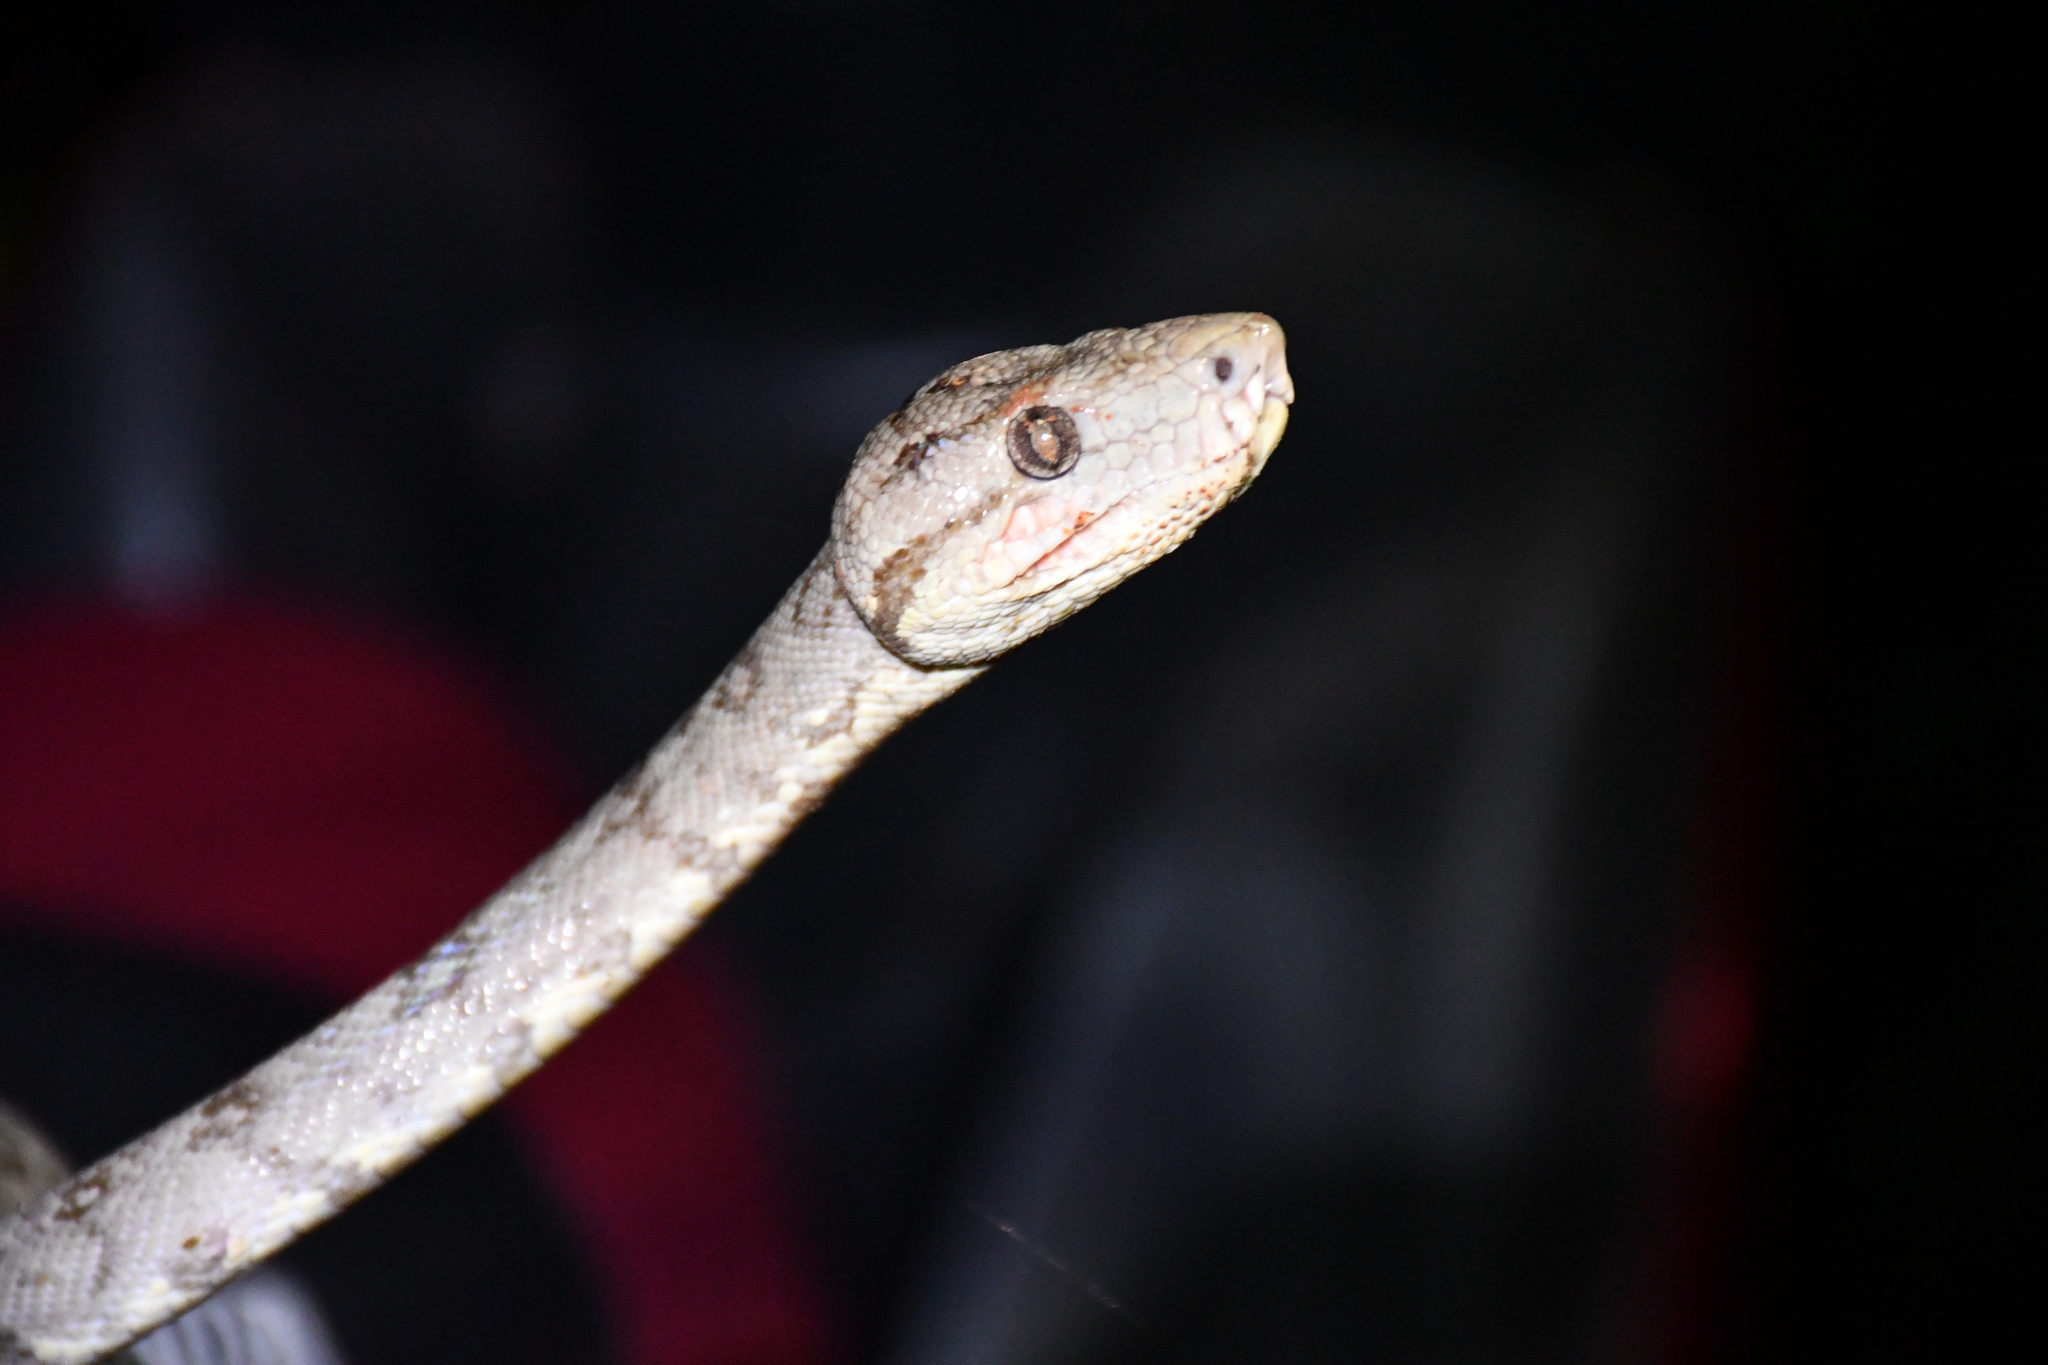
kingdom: Animalia
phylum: Chordata
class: Squamata
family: Boidae
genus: Corallus
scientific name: Corallus hortulana
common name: Garden tree boa
